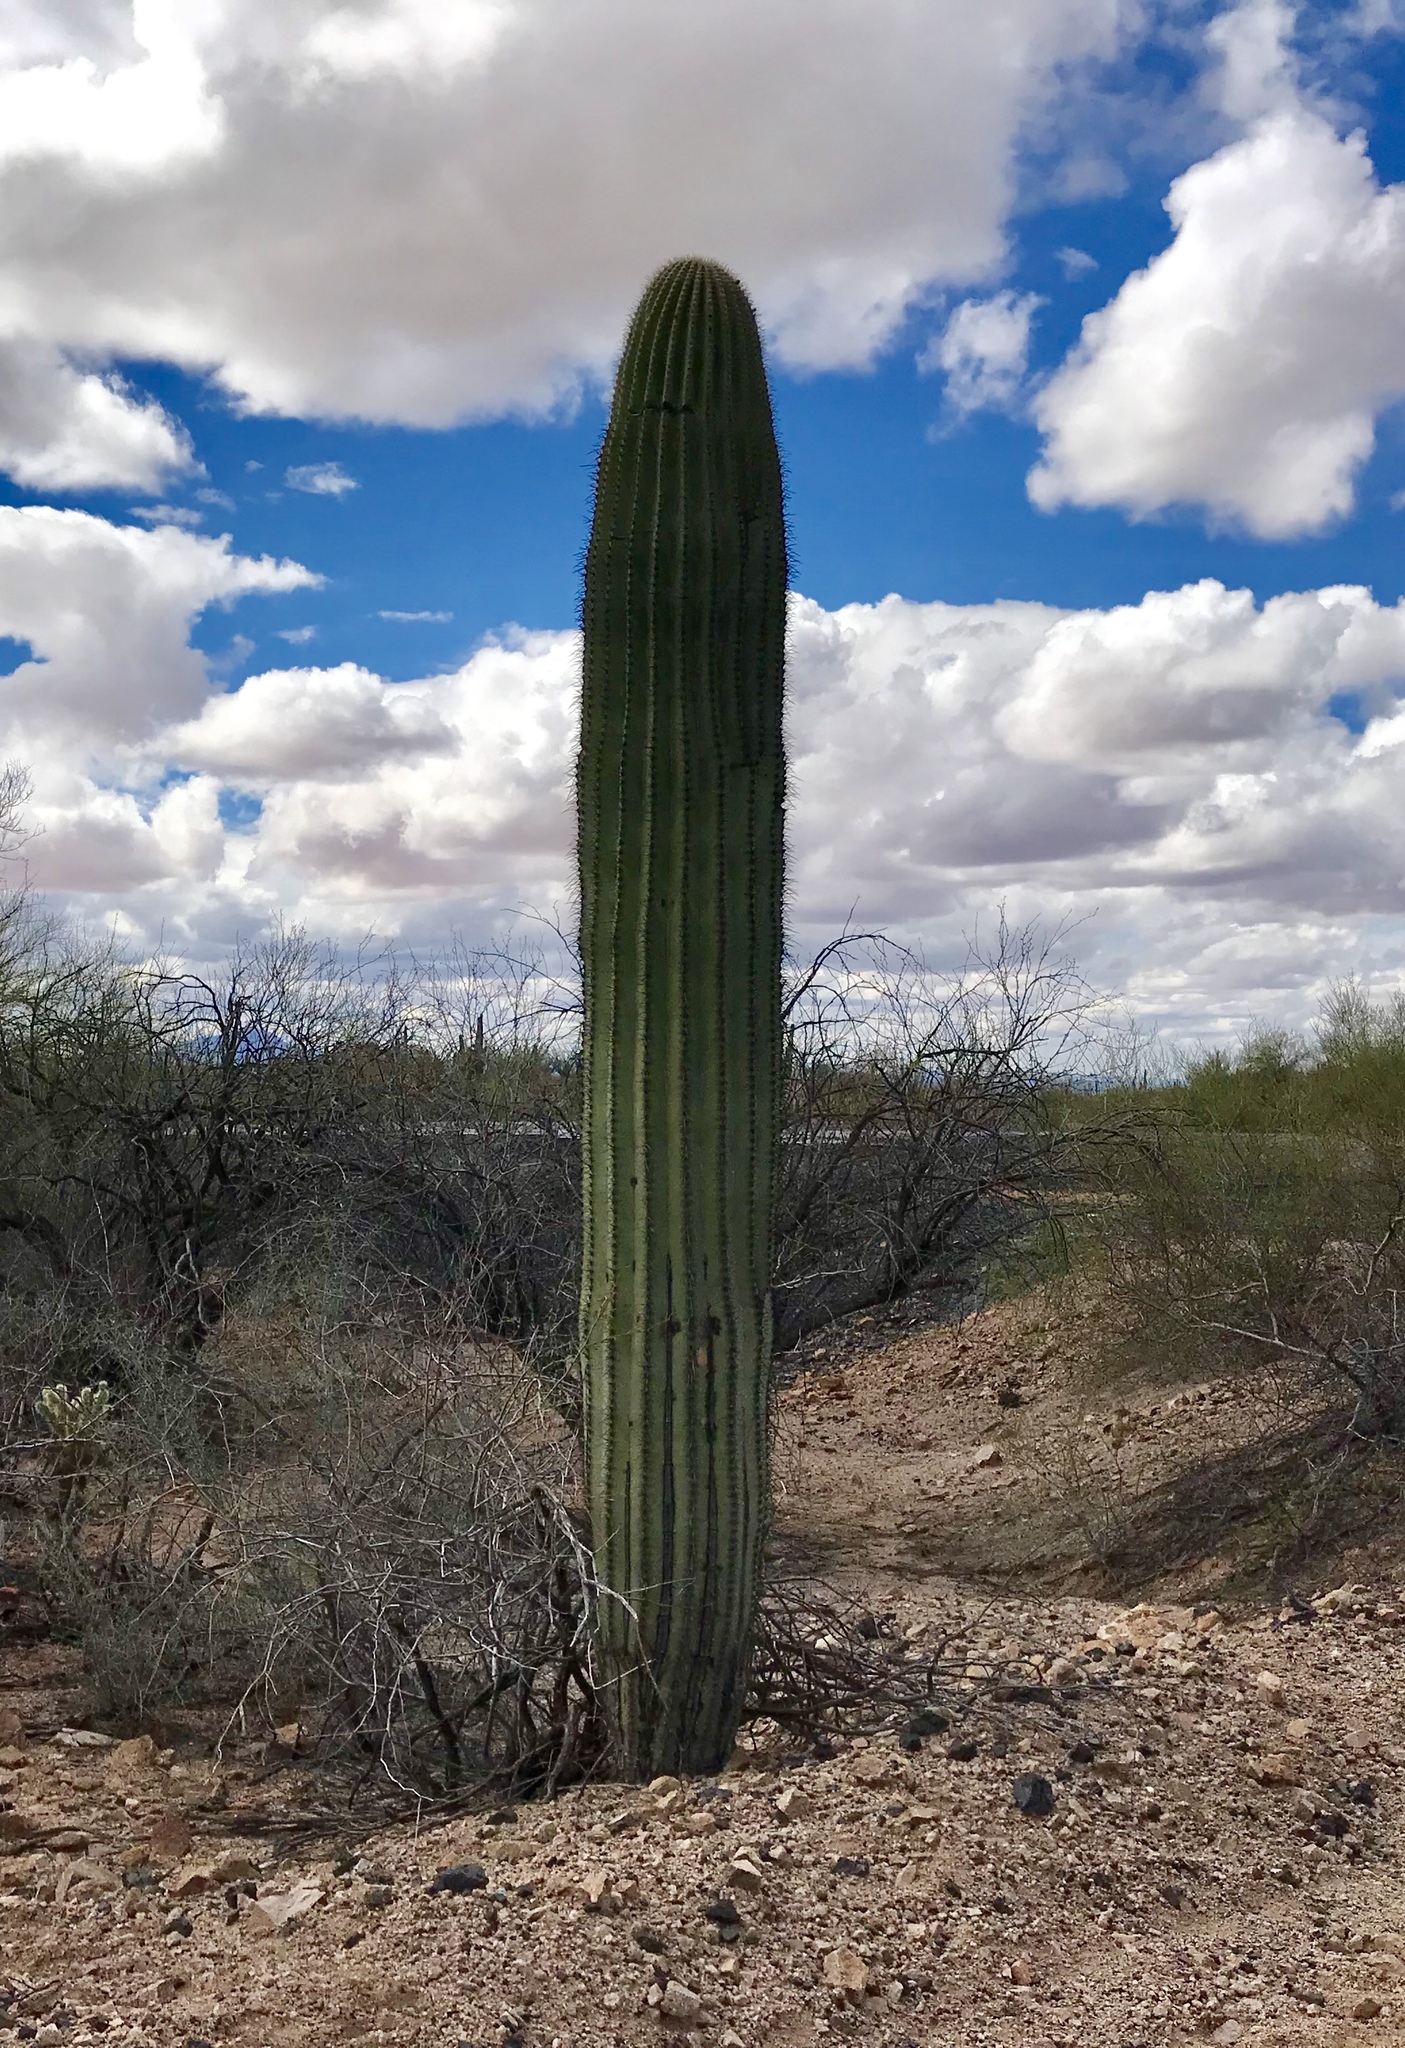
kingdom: Plantae
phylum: Tracheophyta
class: Magnoliopsida
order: Caryophyllales
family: Cactaceae
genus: Carnegiea
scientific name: Carnegiea gigantea
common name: Saguaro
